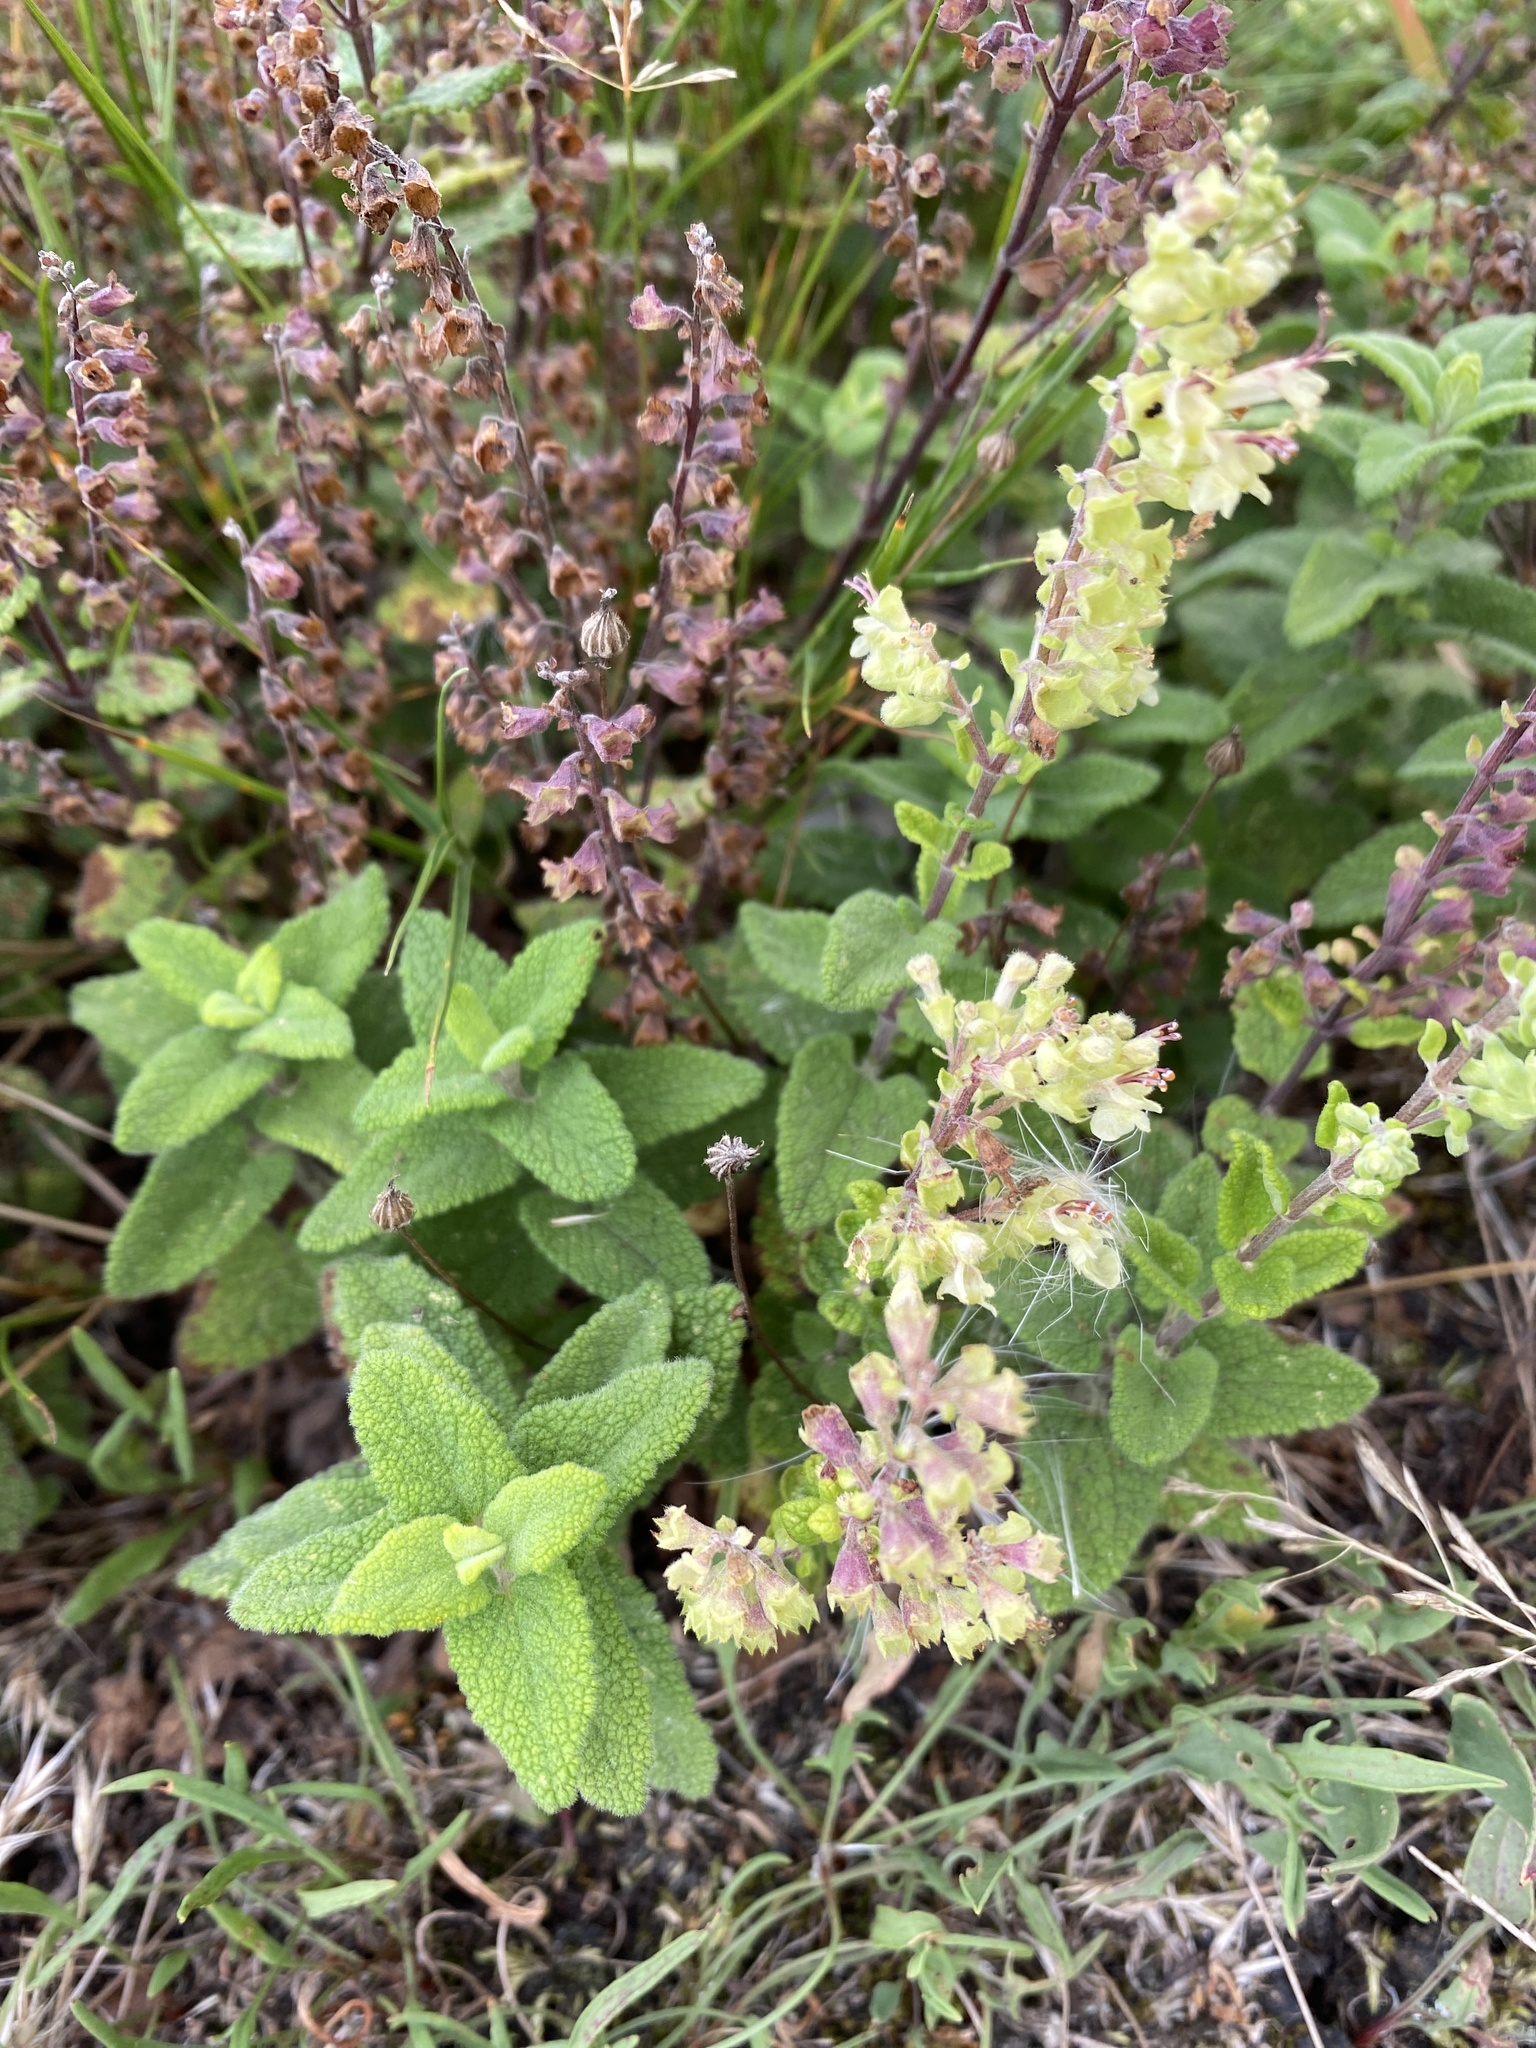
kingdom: Plantae
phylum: Tracheophyta
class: Magnoliopsida
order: Lamiales
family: Lamiaceae
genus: Teucrium
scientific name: Teucrium scorodonia
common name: Woodland germander
